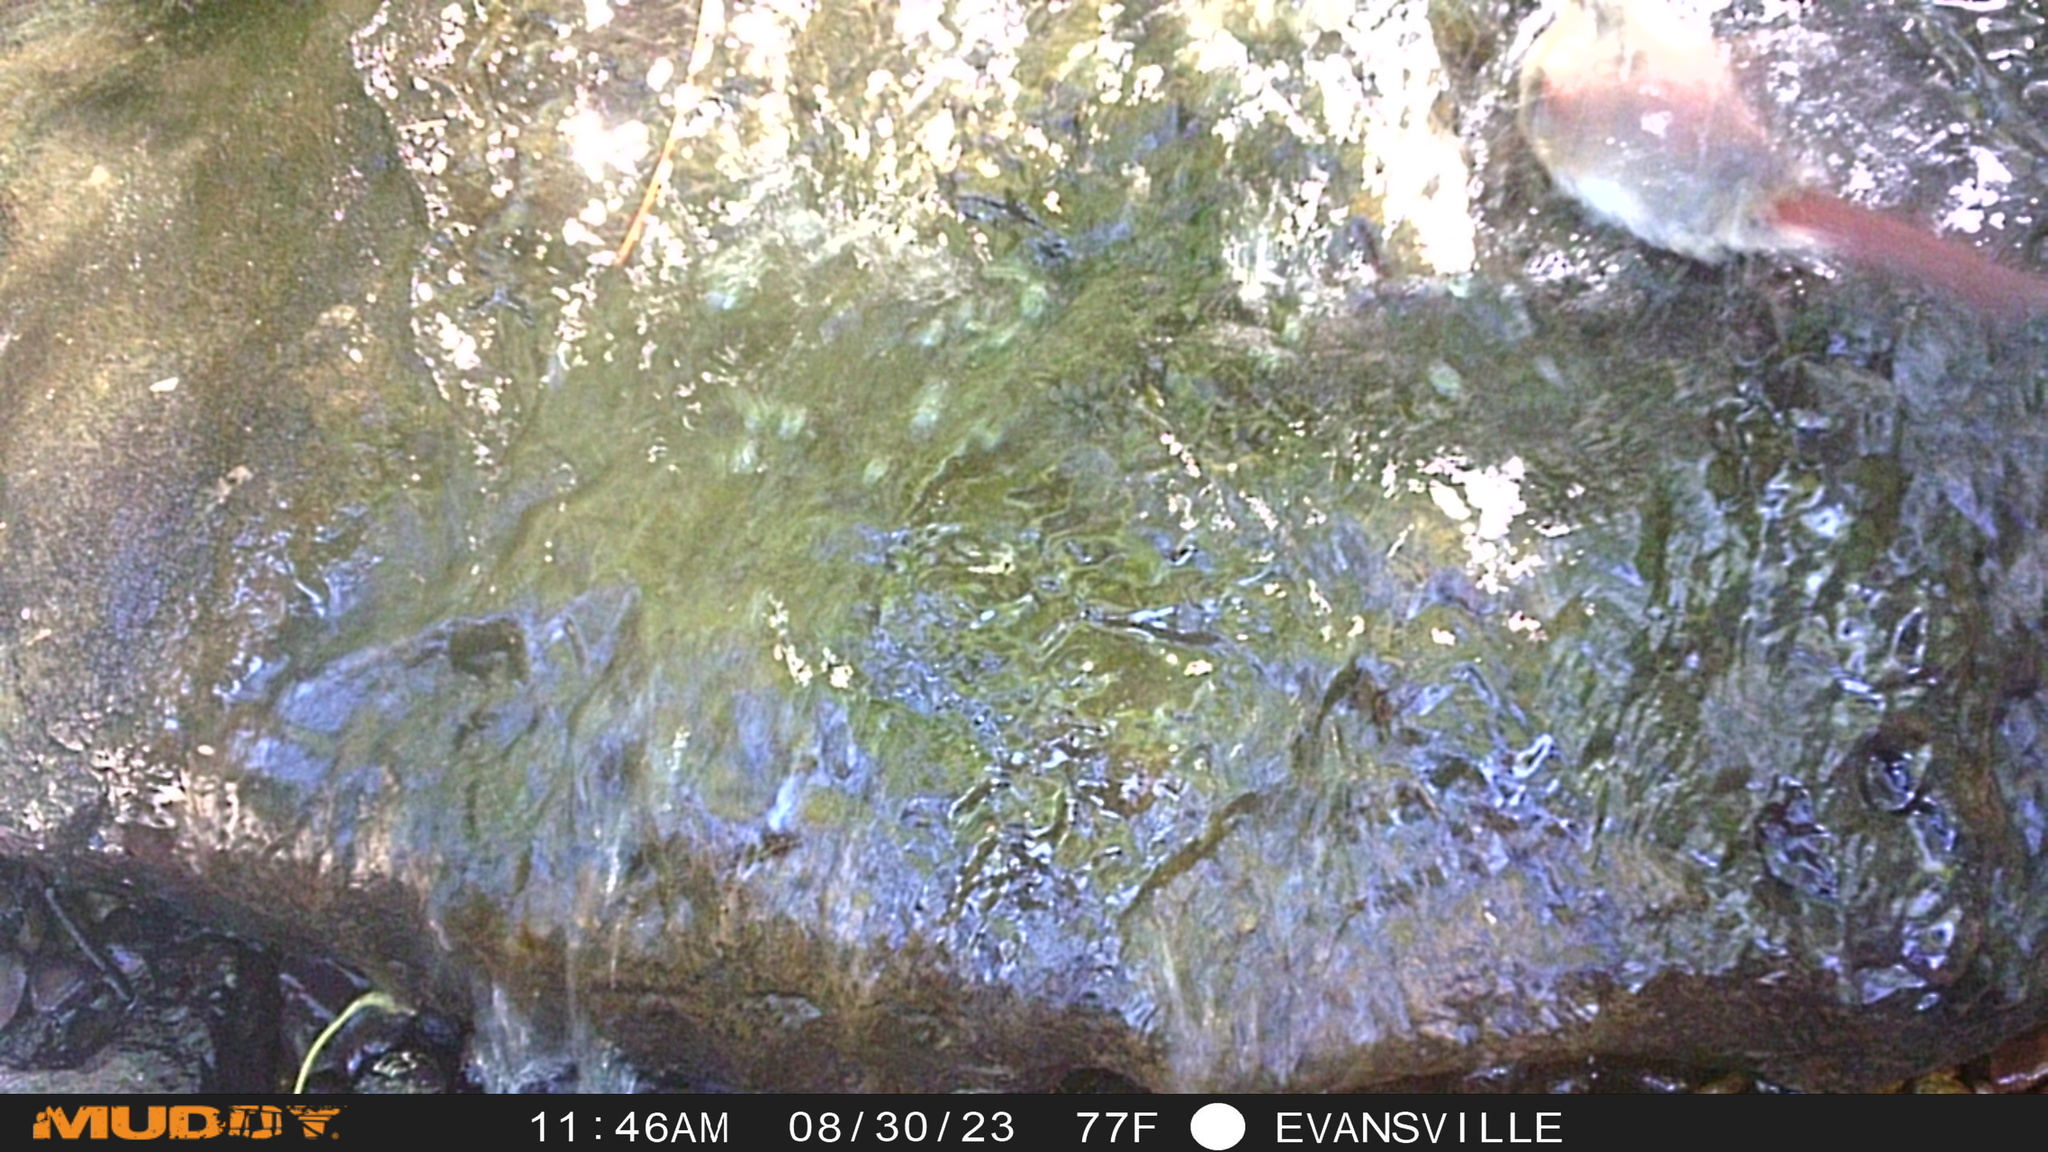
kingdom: Animalia
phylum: Chordata
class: Aves
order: Passeriformes
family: Cardinalidae
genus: Cardinalis
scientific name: Cardinalis cardinalis
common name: Northern cardinal
